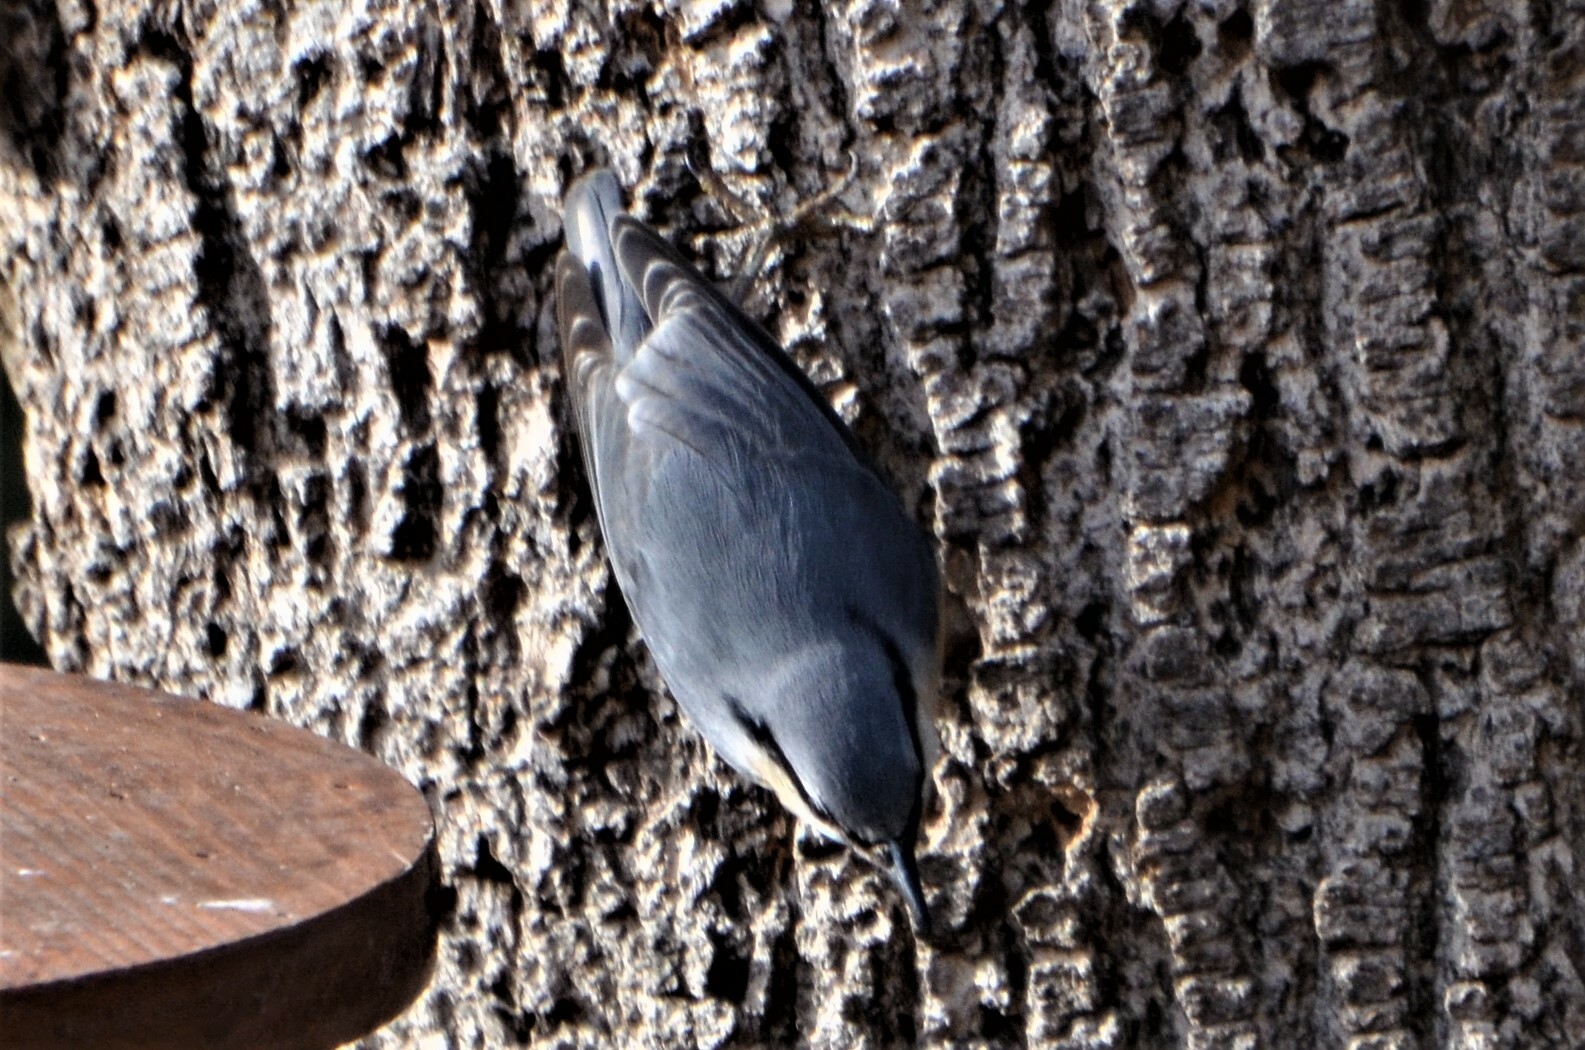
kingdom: Animalia
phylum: Chordata
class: Aves
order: Passeriformes
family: Sittidae
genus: Sitta
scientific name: Sitta europaea
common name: Eurasian nuthatch
